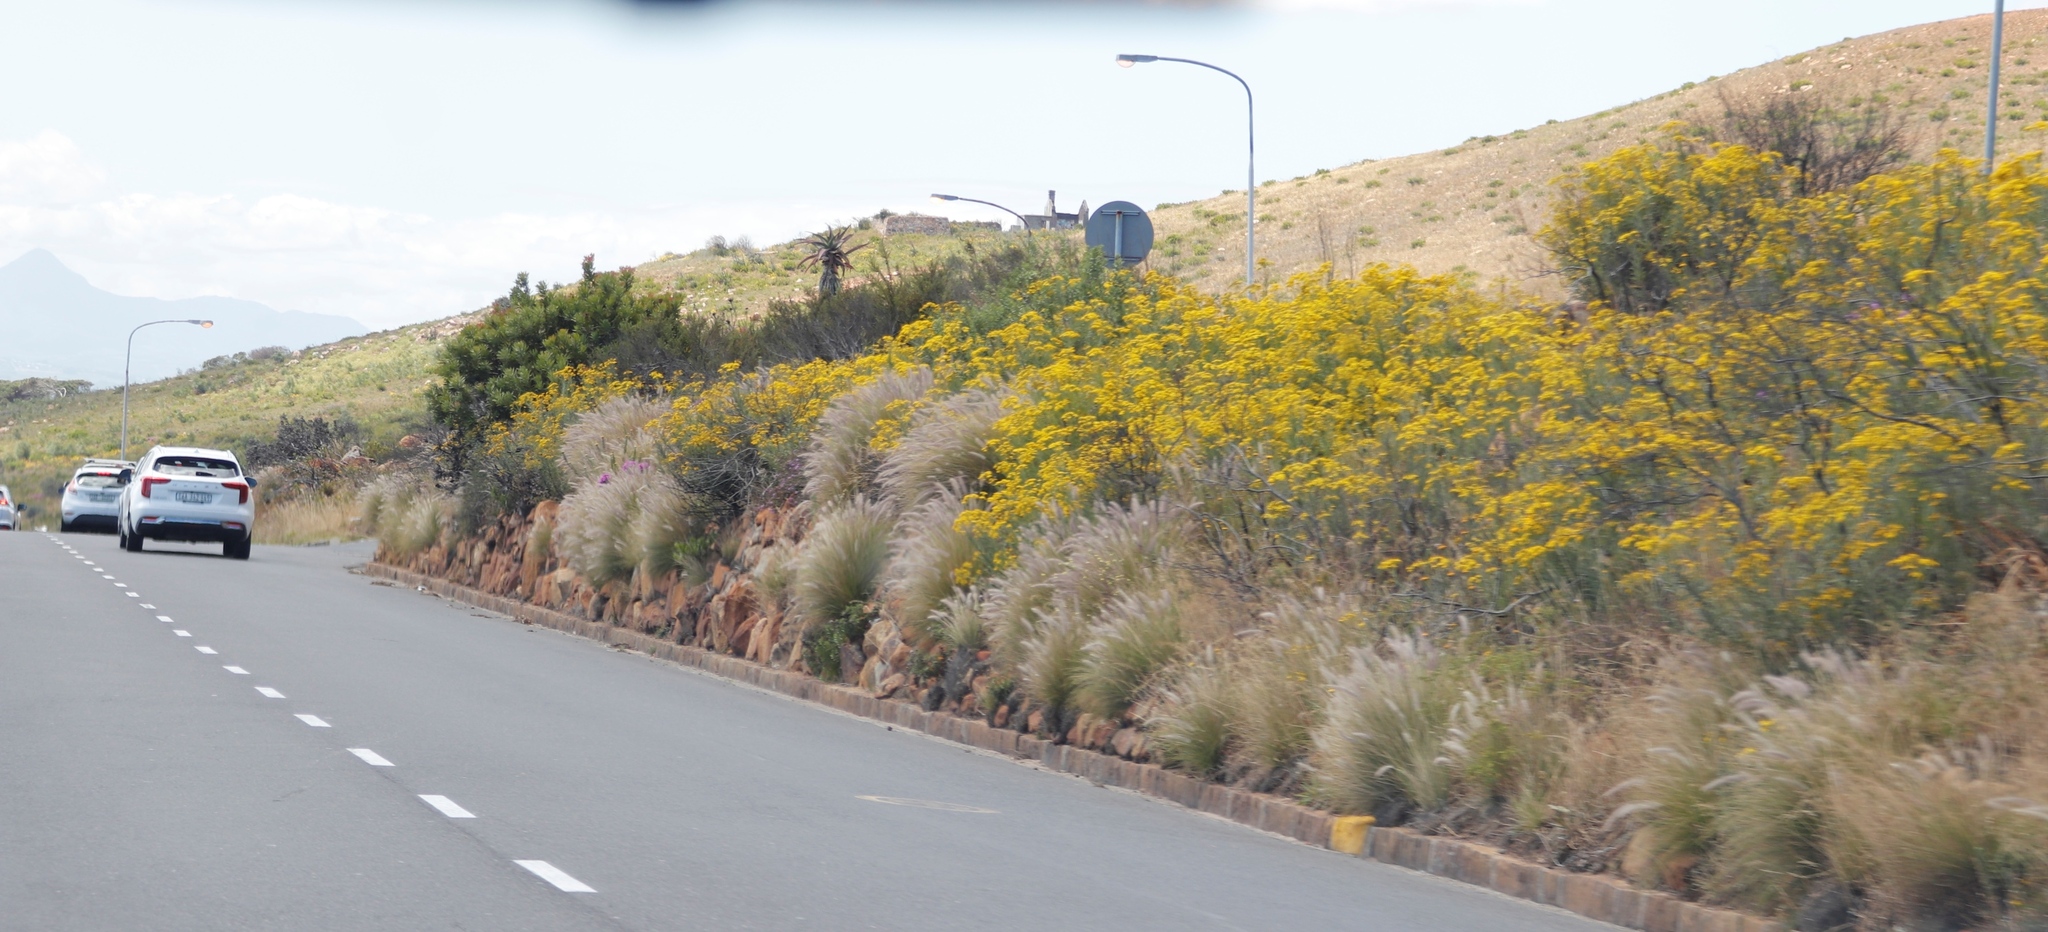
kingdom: Plantae
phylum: Tracheophyta
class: Liliopsida
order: Poales
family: Poaceae
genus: Cenchrus
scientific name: Cenchrus setaceus
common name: Crimson fountaingrass
